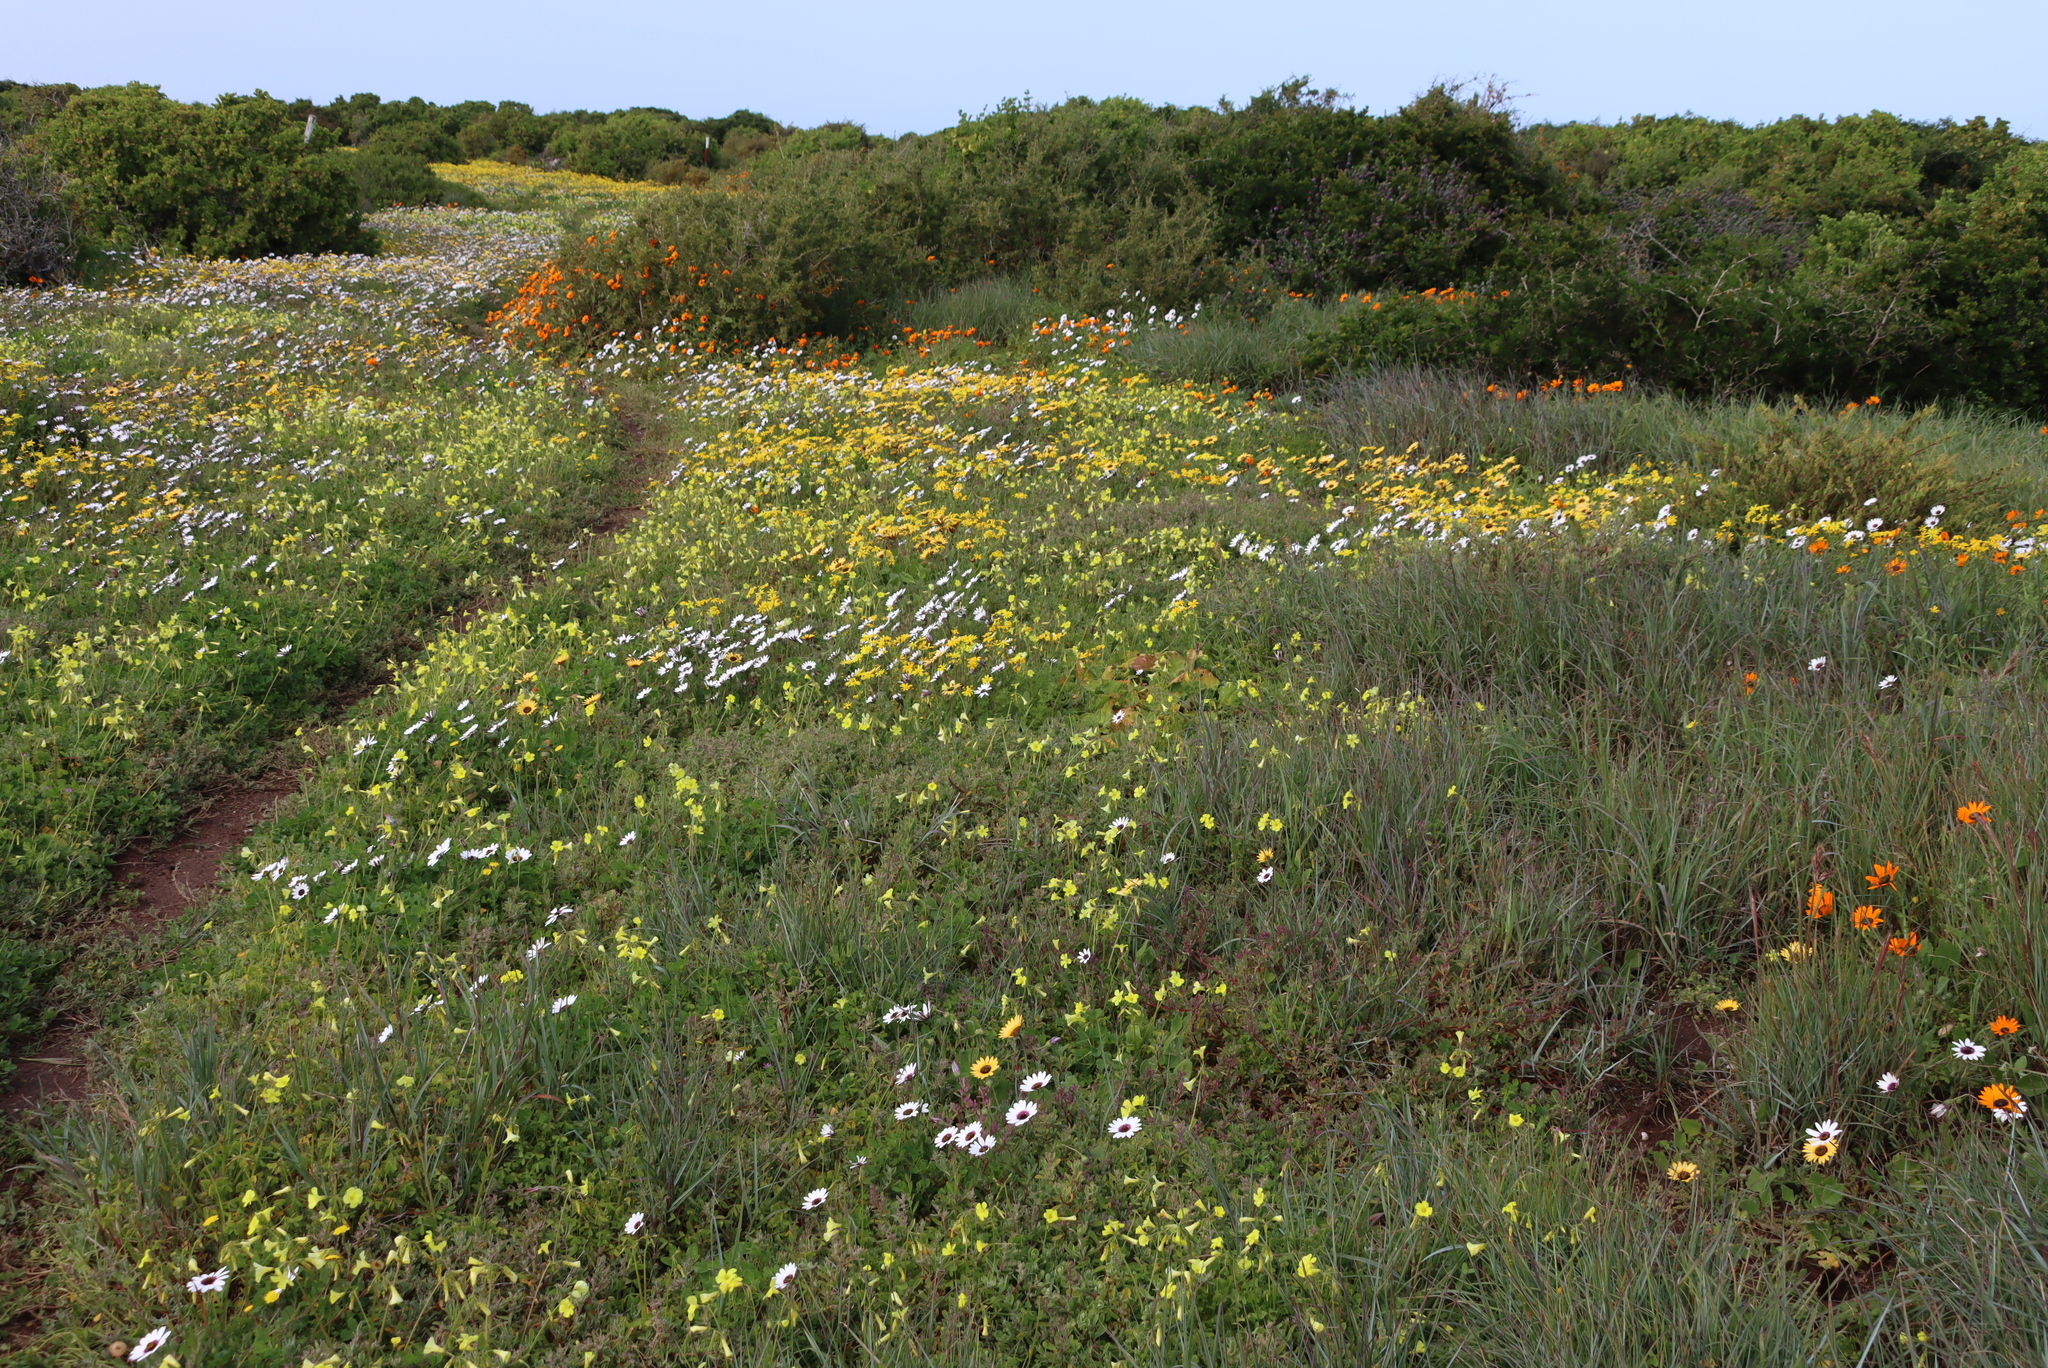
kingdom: Plantae
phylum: Tracheophyta
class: Magnoliopsida
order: Oxalidales
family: Oxalidaceae
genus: Oxalis
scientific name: Oxalis pes-caprae
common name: Bermuda-buttercup
